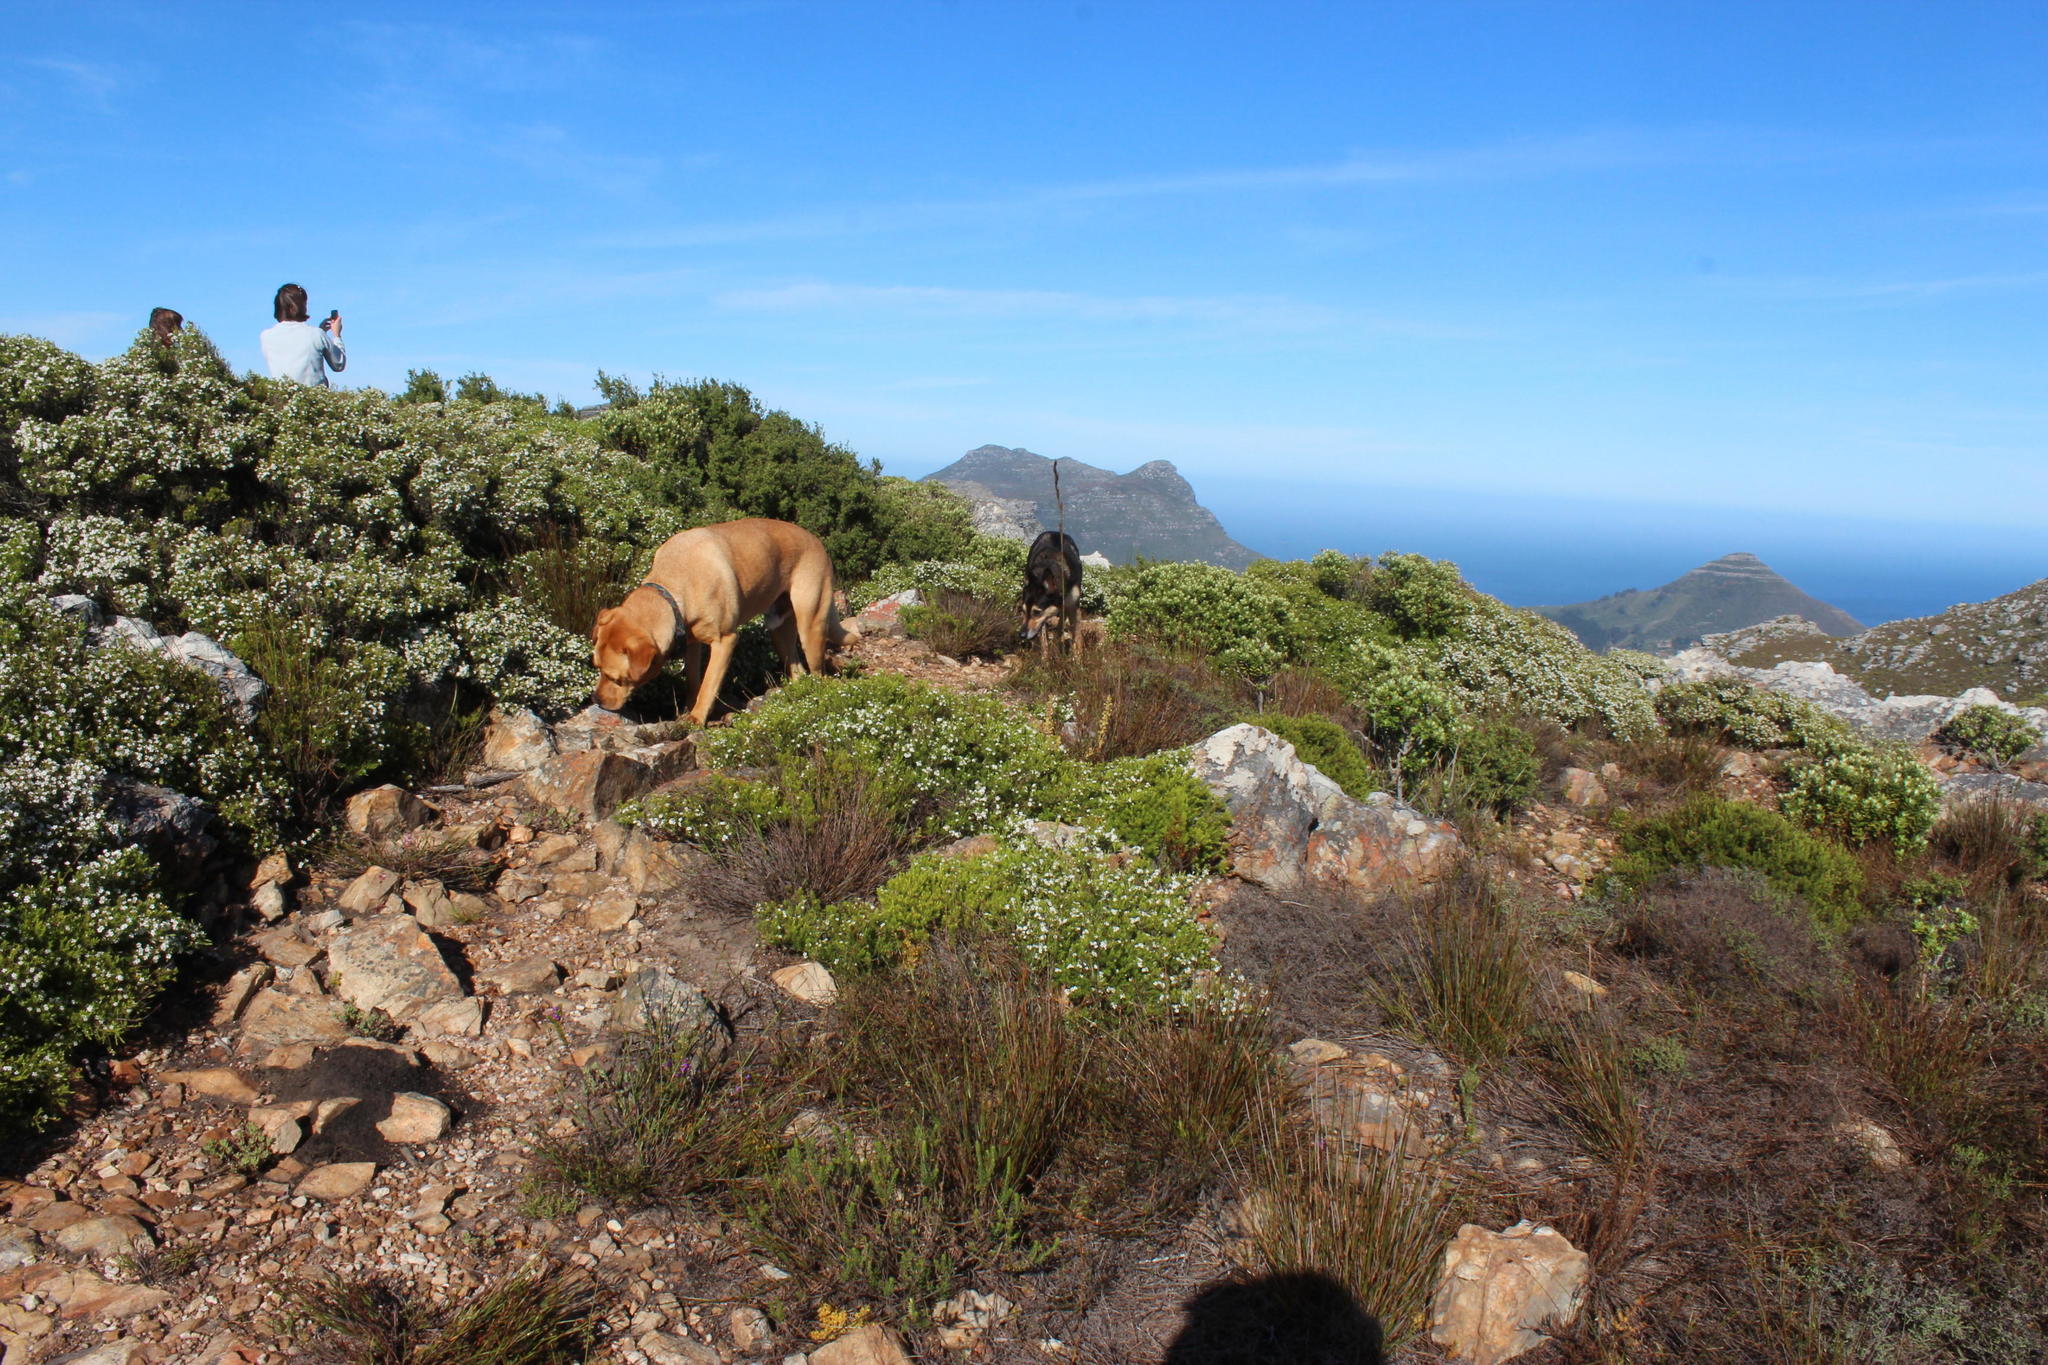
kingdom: Plantae
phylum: Tracheophyta
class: Magnoliopsida
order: Sapindales
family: Rutaceae
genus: Coleonema
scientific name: Coleonema album
